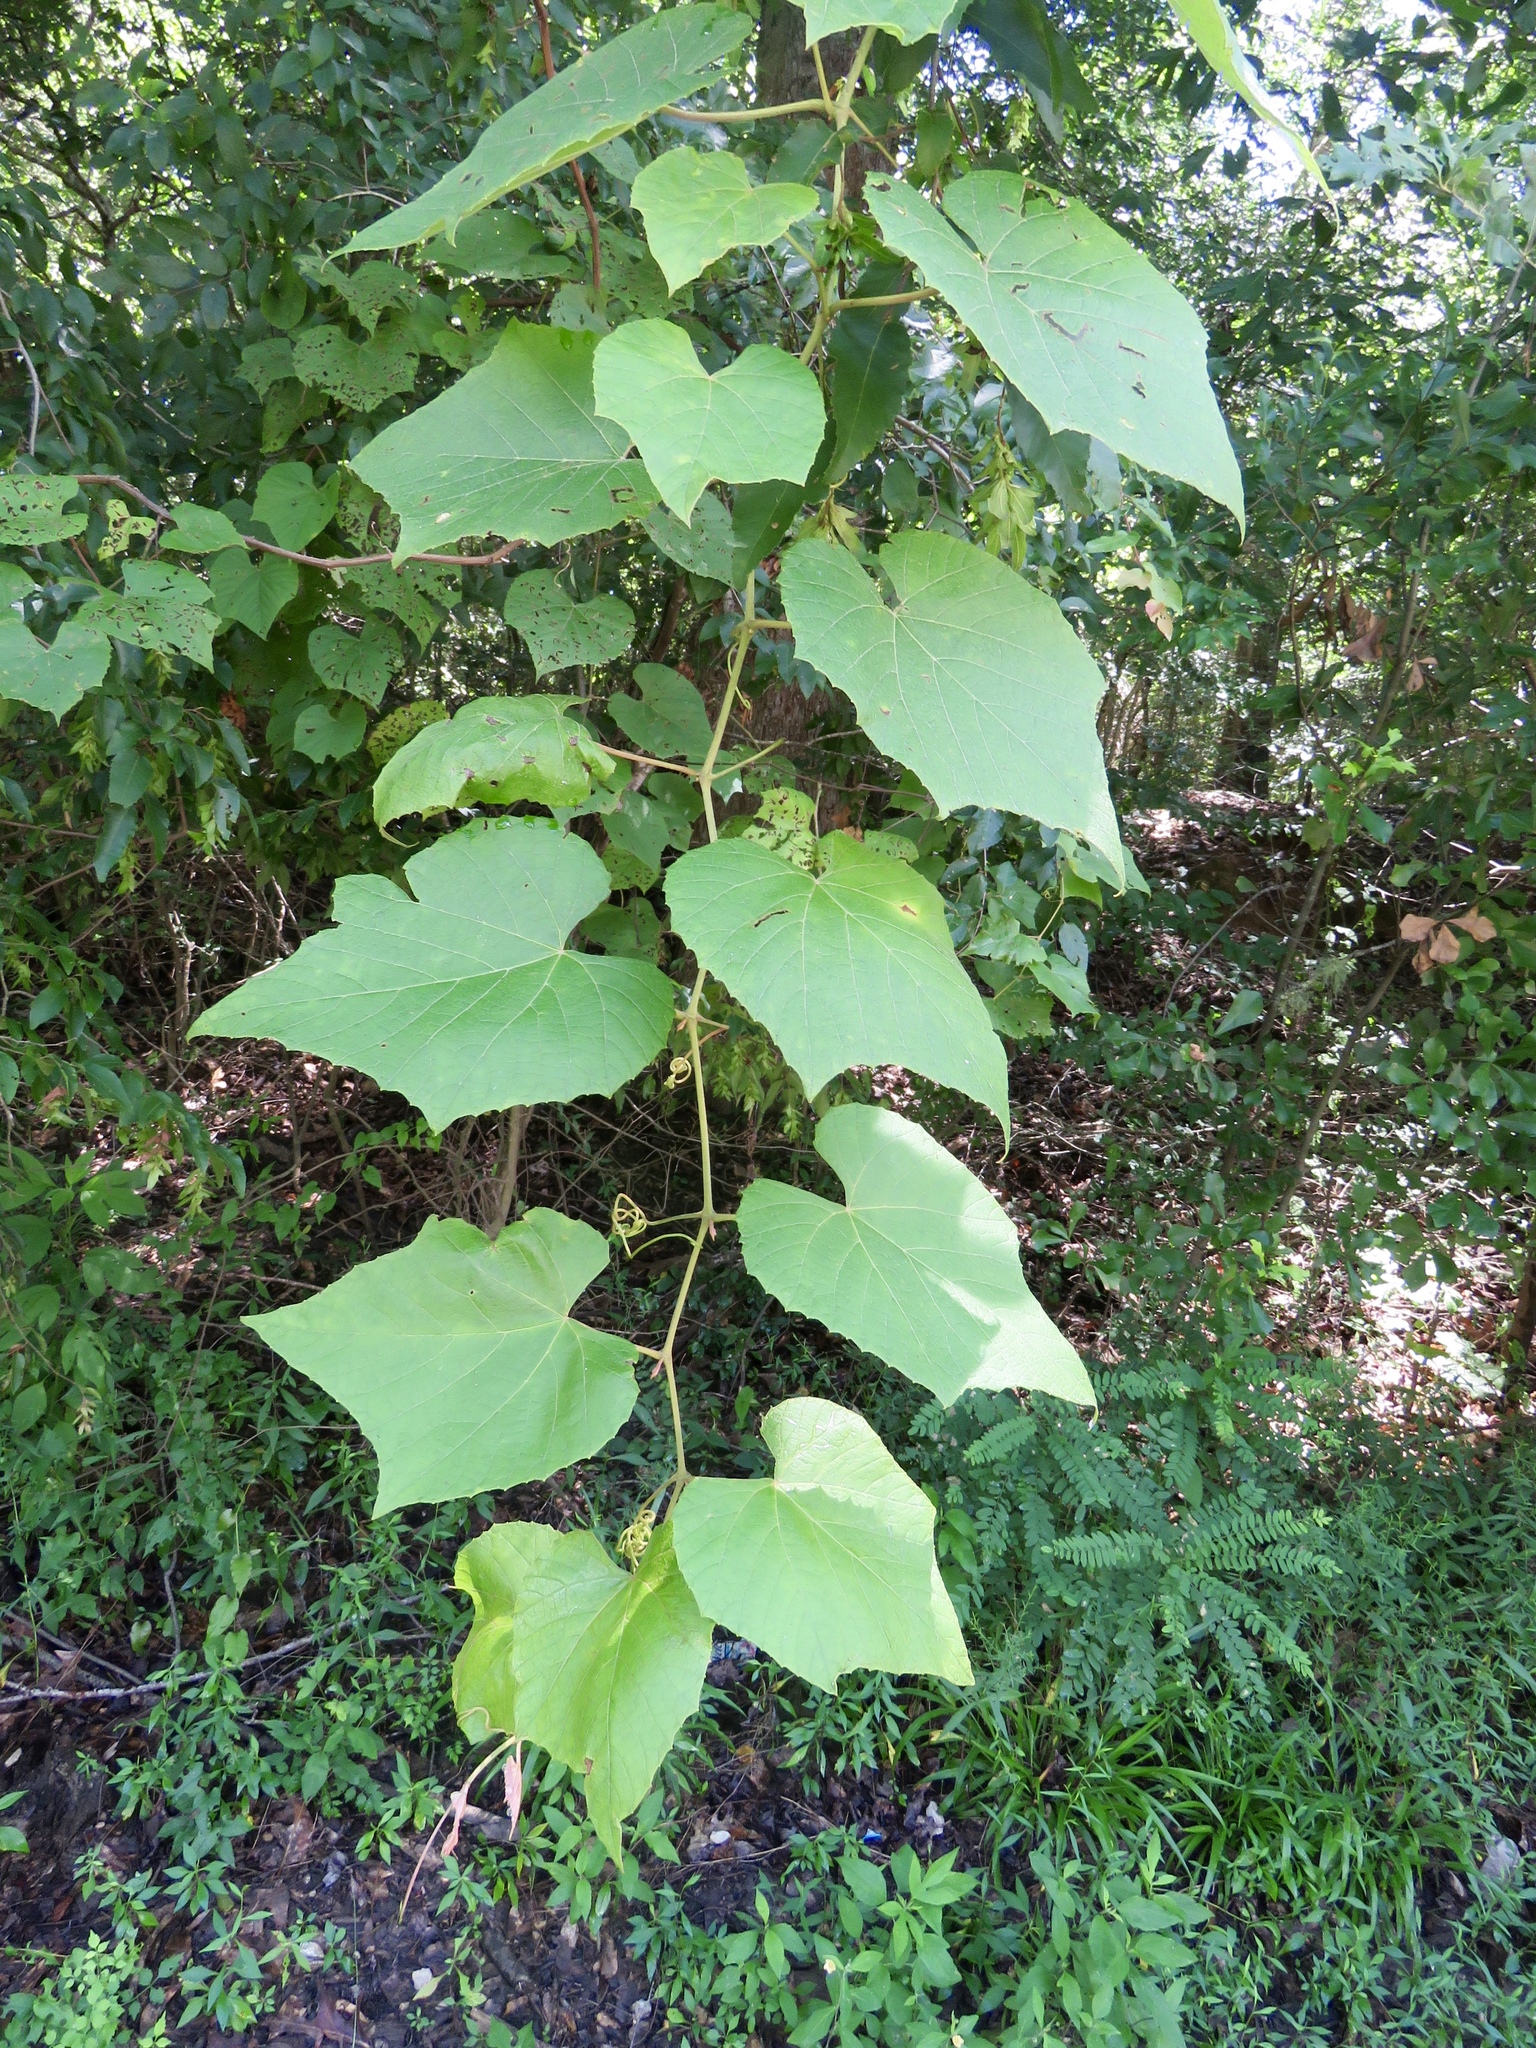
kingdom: Plantae
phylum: Tracheophyta
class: Magnoliopsida
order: Vitales
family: Vitaceae
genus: Vitis
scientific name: Vitis cinerea
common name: Ashy grape
